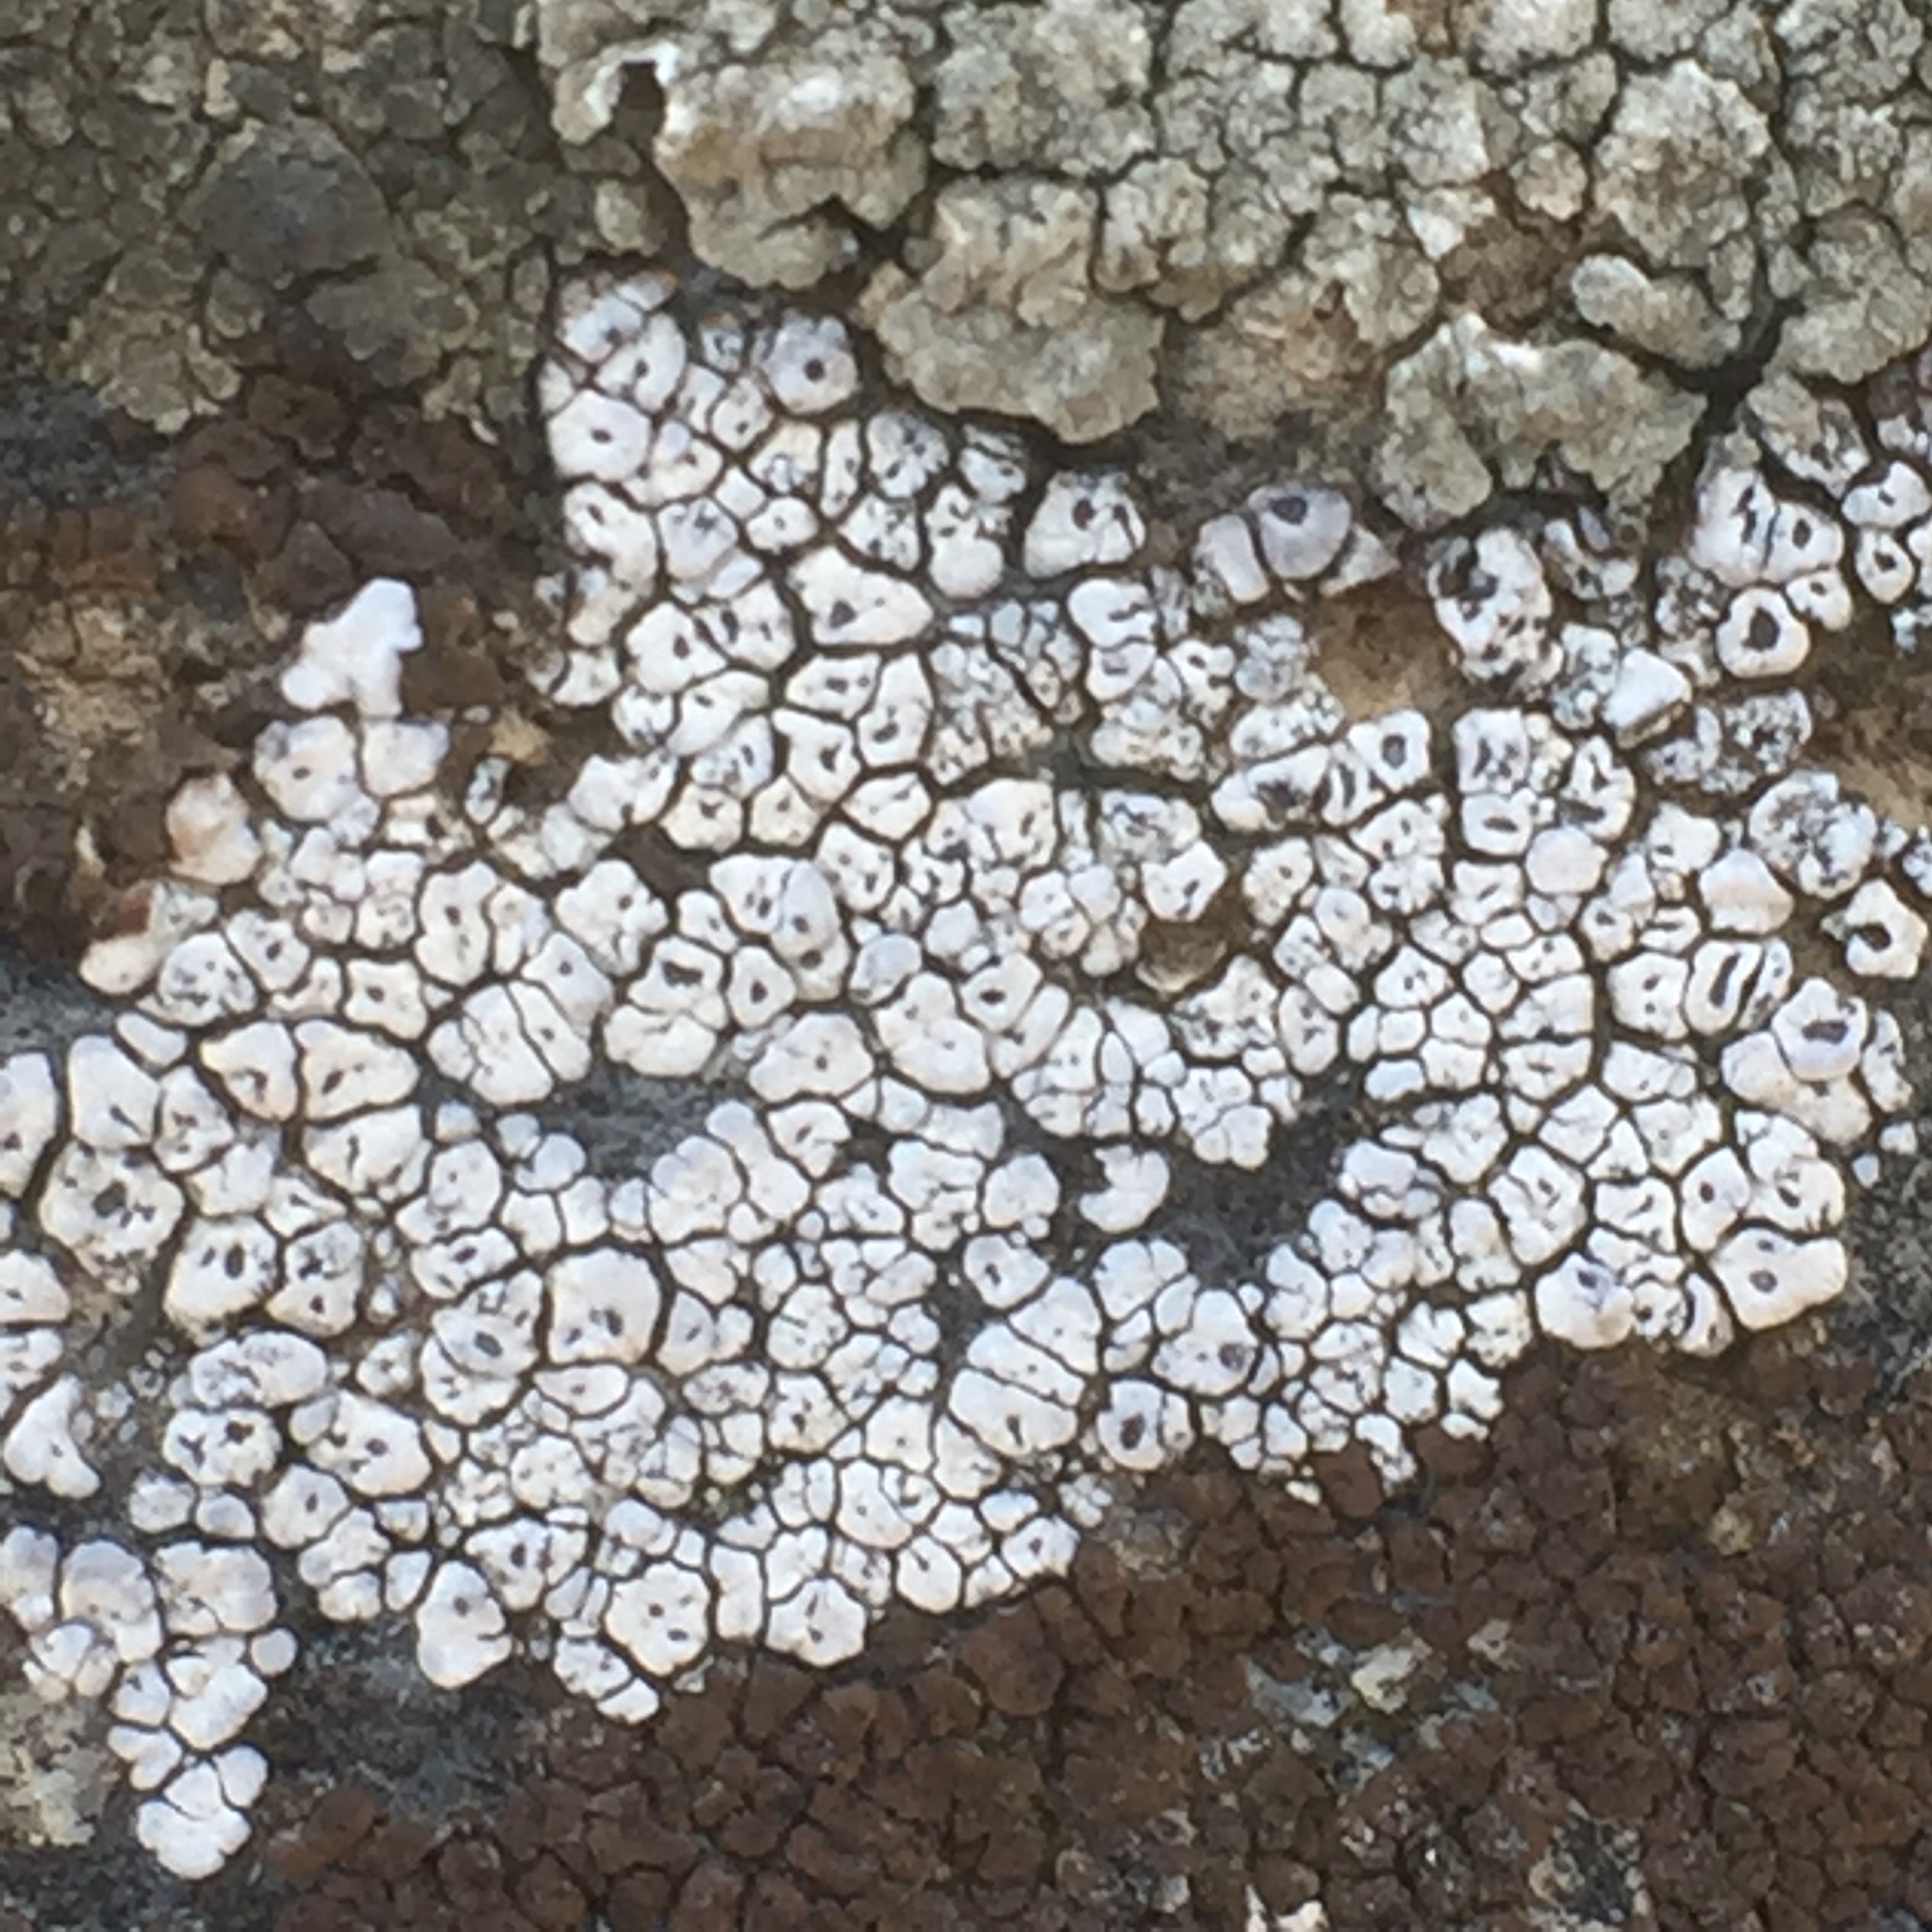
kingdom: Fungi
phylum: Ascomycota
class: Lecanoromycetes
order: Acarosporales
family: Acarosporaceae
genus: Acarospora
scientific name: Acarospora strigata
